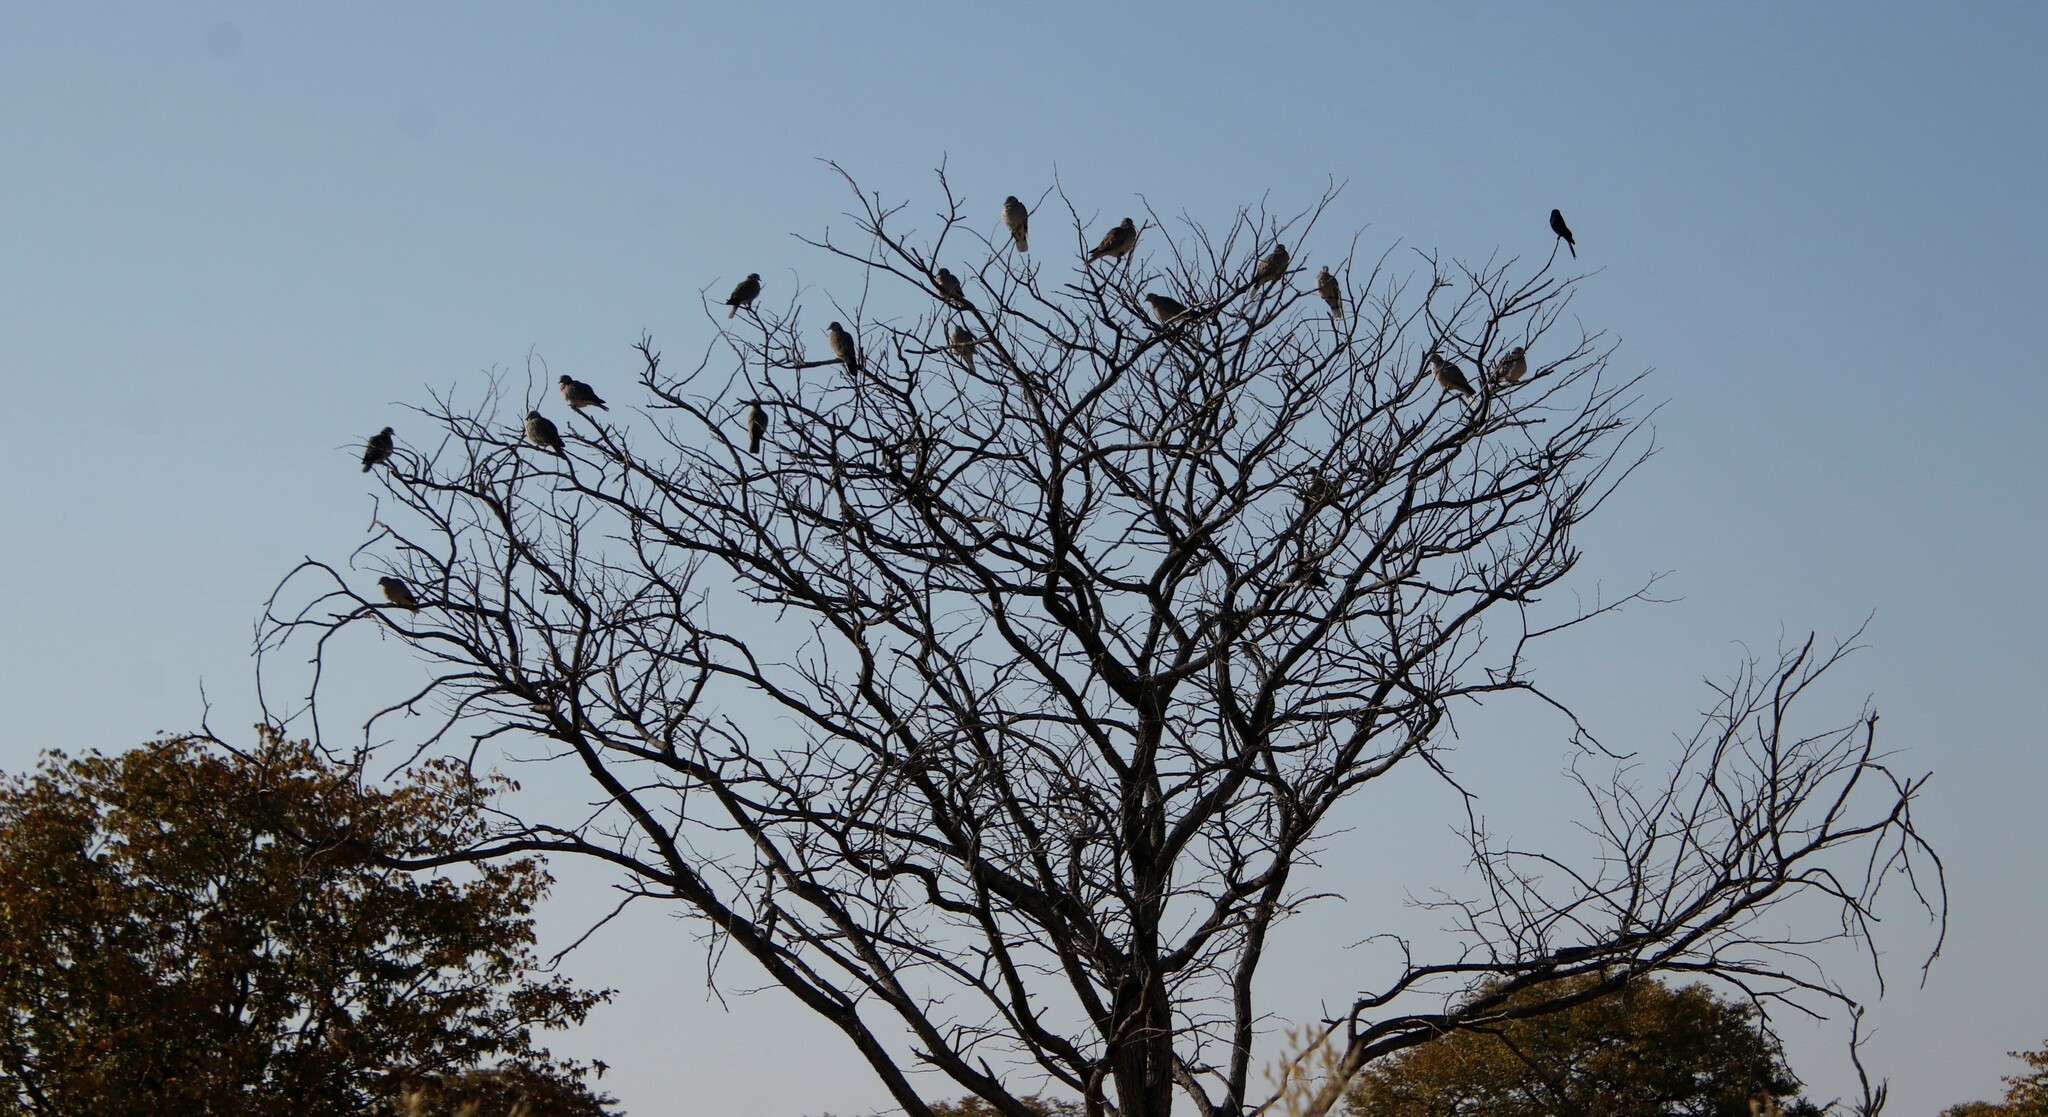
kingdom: Animalia
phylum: Chordata
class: Aves
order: Columbiformes
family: Columbidae
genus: Streptopelia
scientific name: Streptopelia capicola
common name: Ring-necked dove
